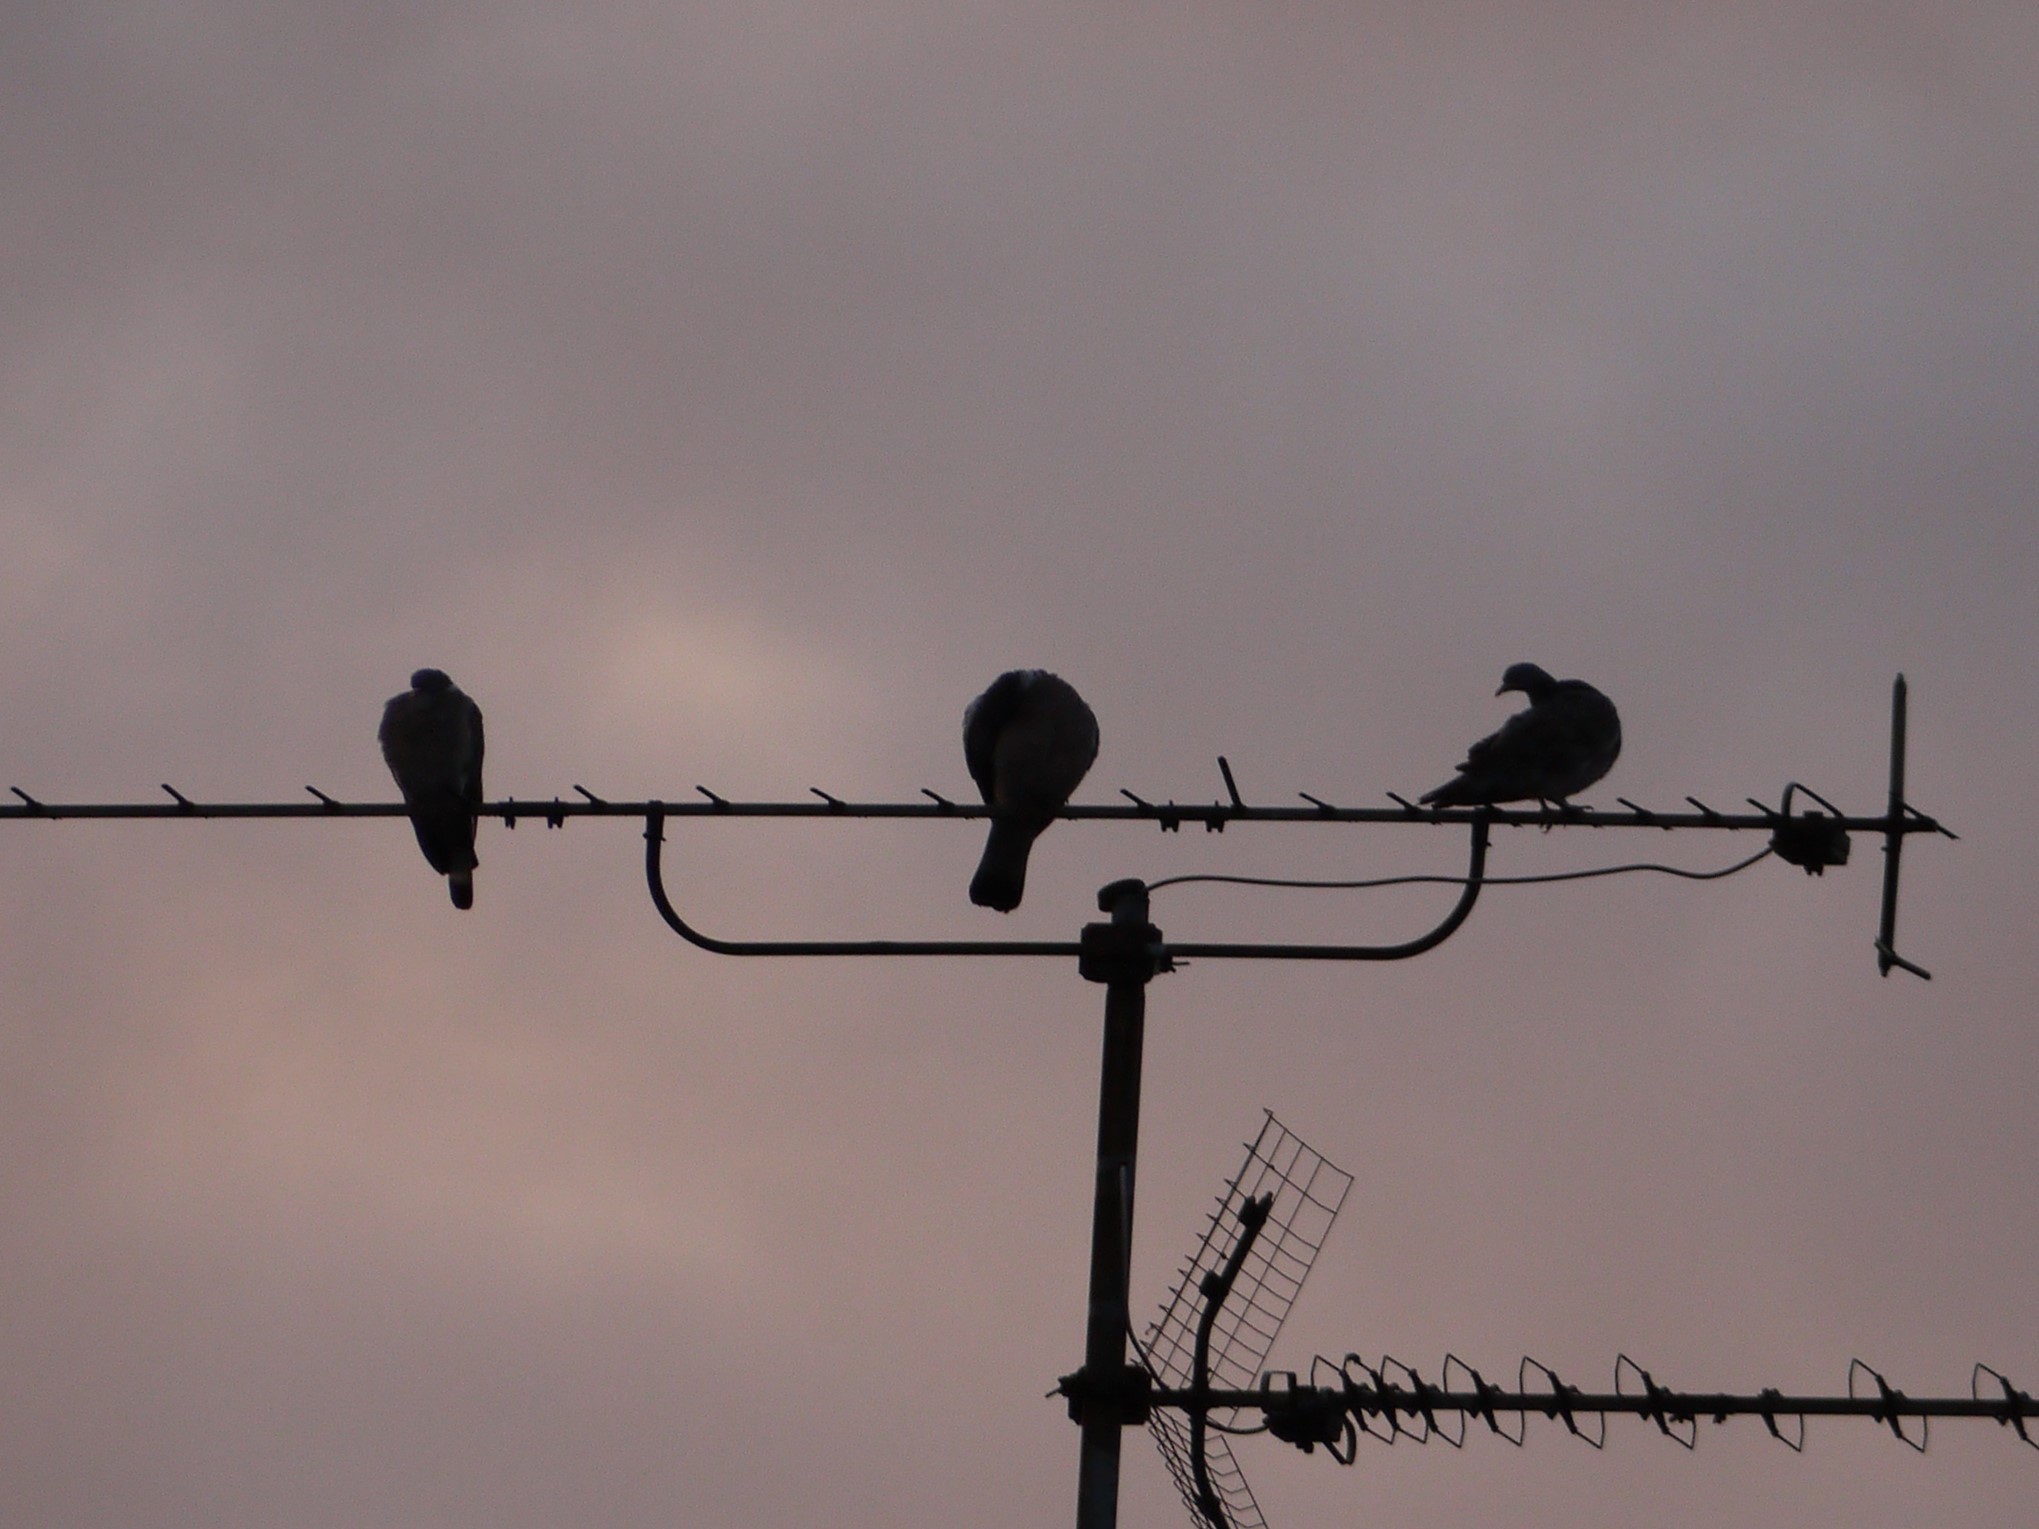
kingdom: Animalia
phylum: Chordata
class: Aves
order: Columbiformes
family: Columbidae
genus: Columba
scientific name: Columba palumbus
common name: Common wood pigeon
